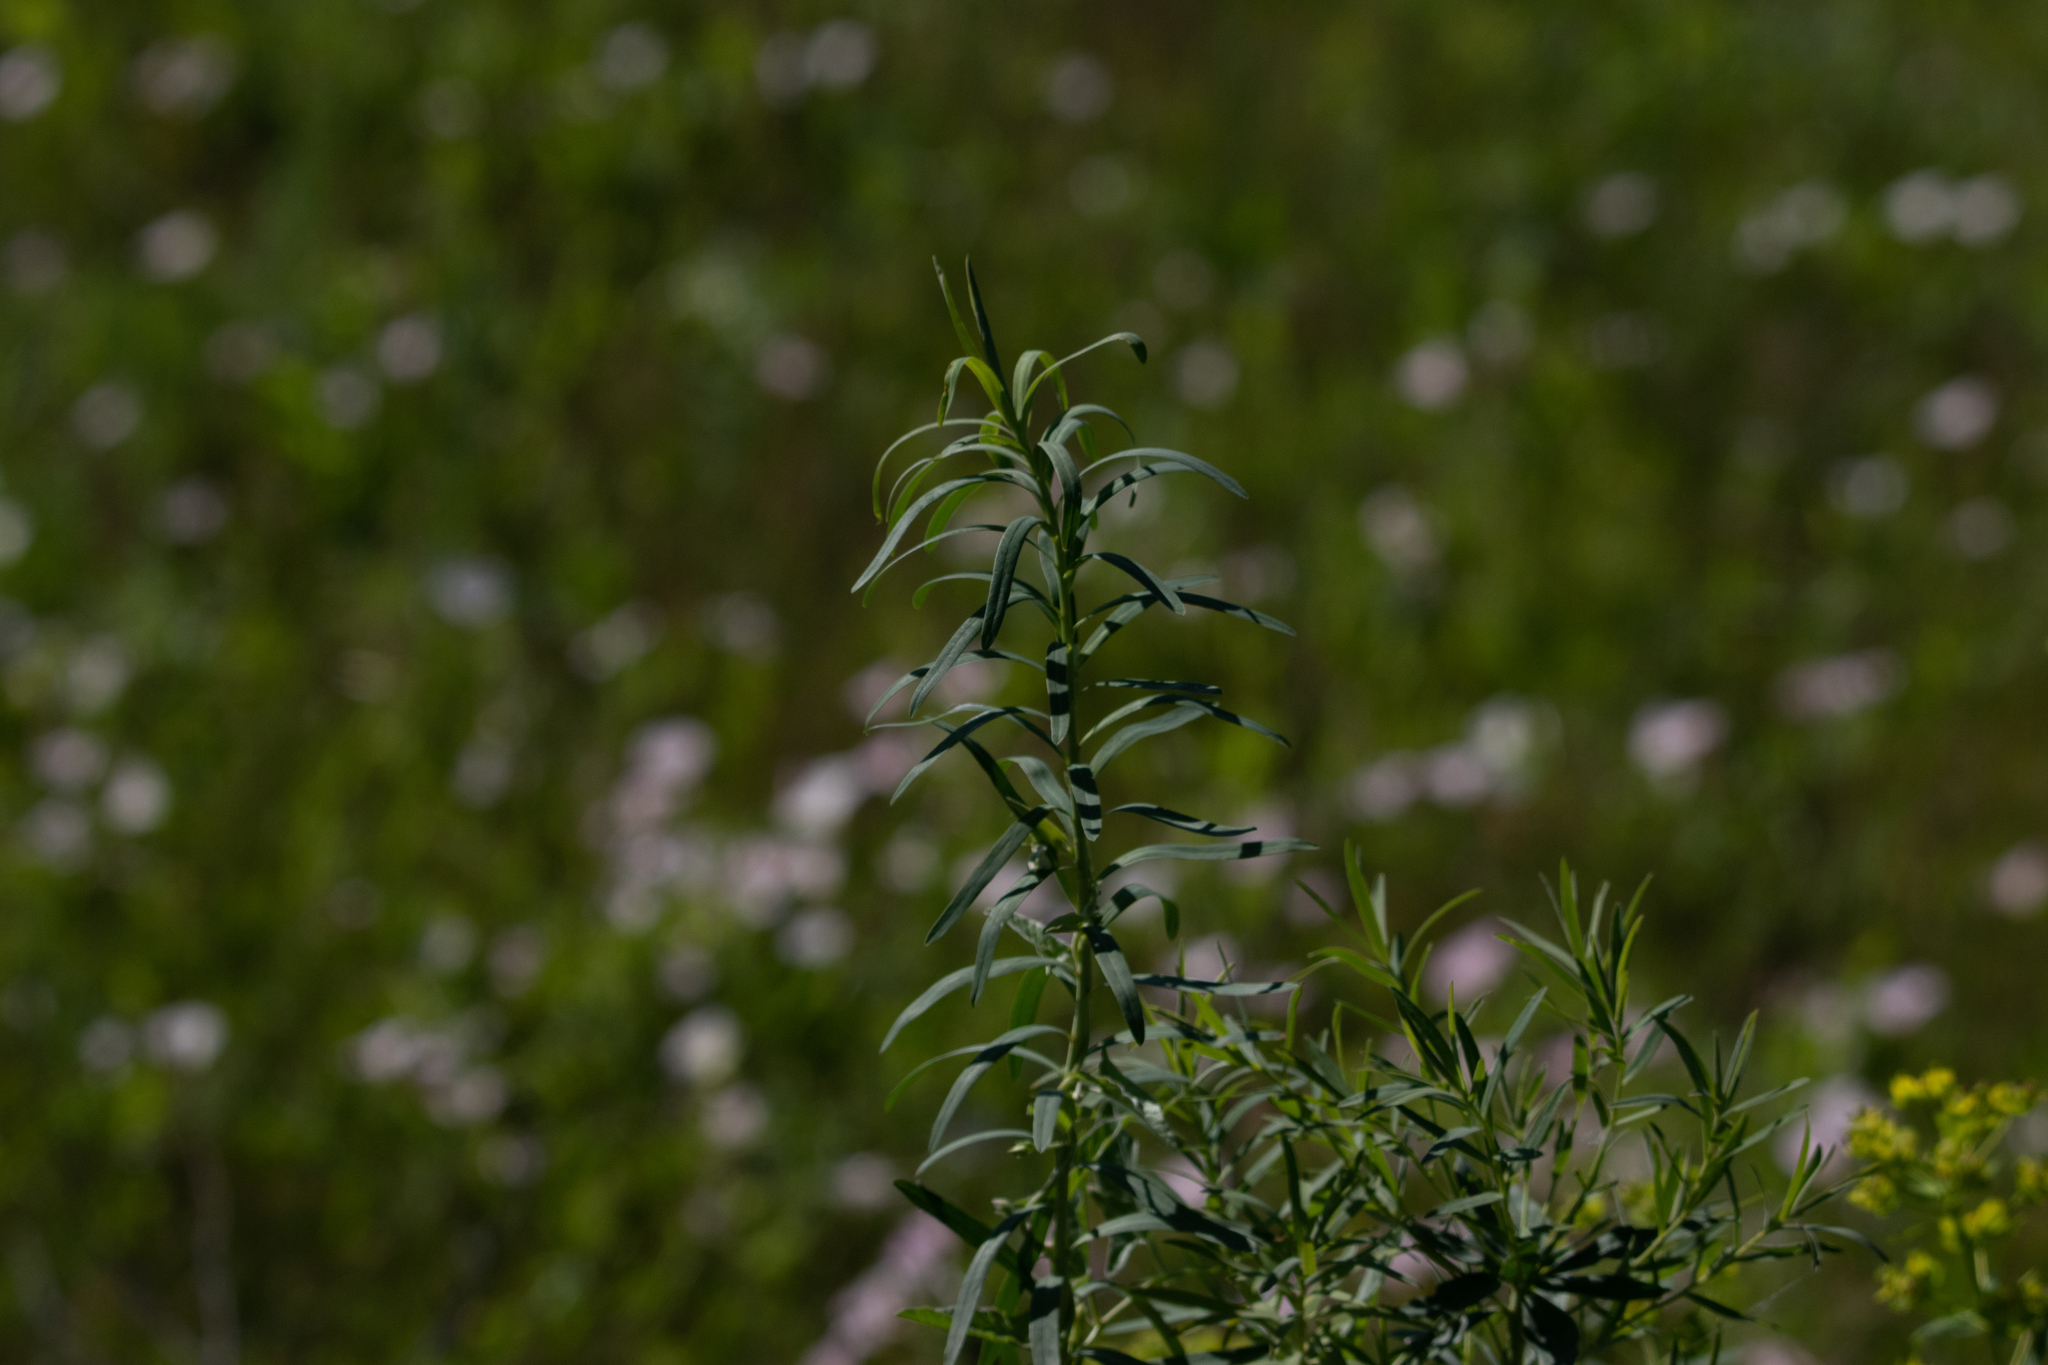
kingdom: Plantae
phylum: Tracheophyta
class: Magnoliopsida
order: Malpighiales
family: Euphorbiaceae
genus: Euphorbia
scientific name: Euphorbia virgata
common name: Leafy spurge
